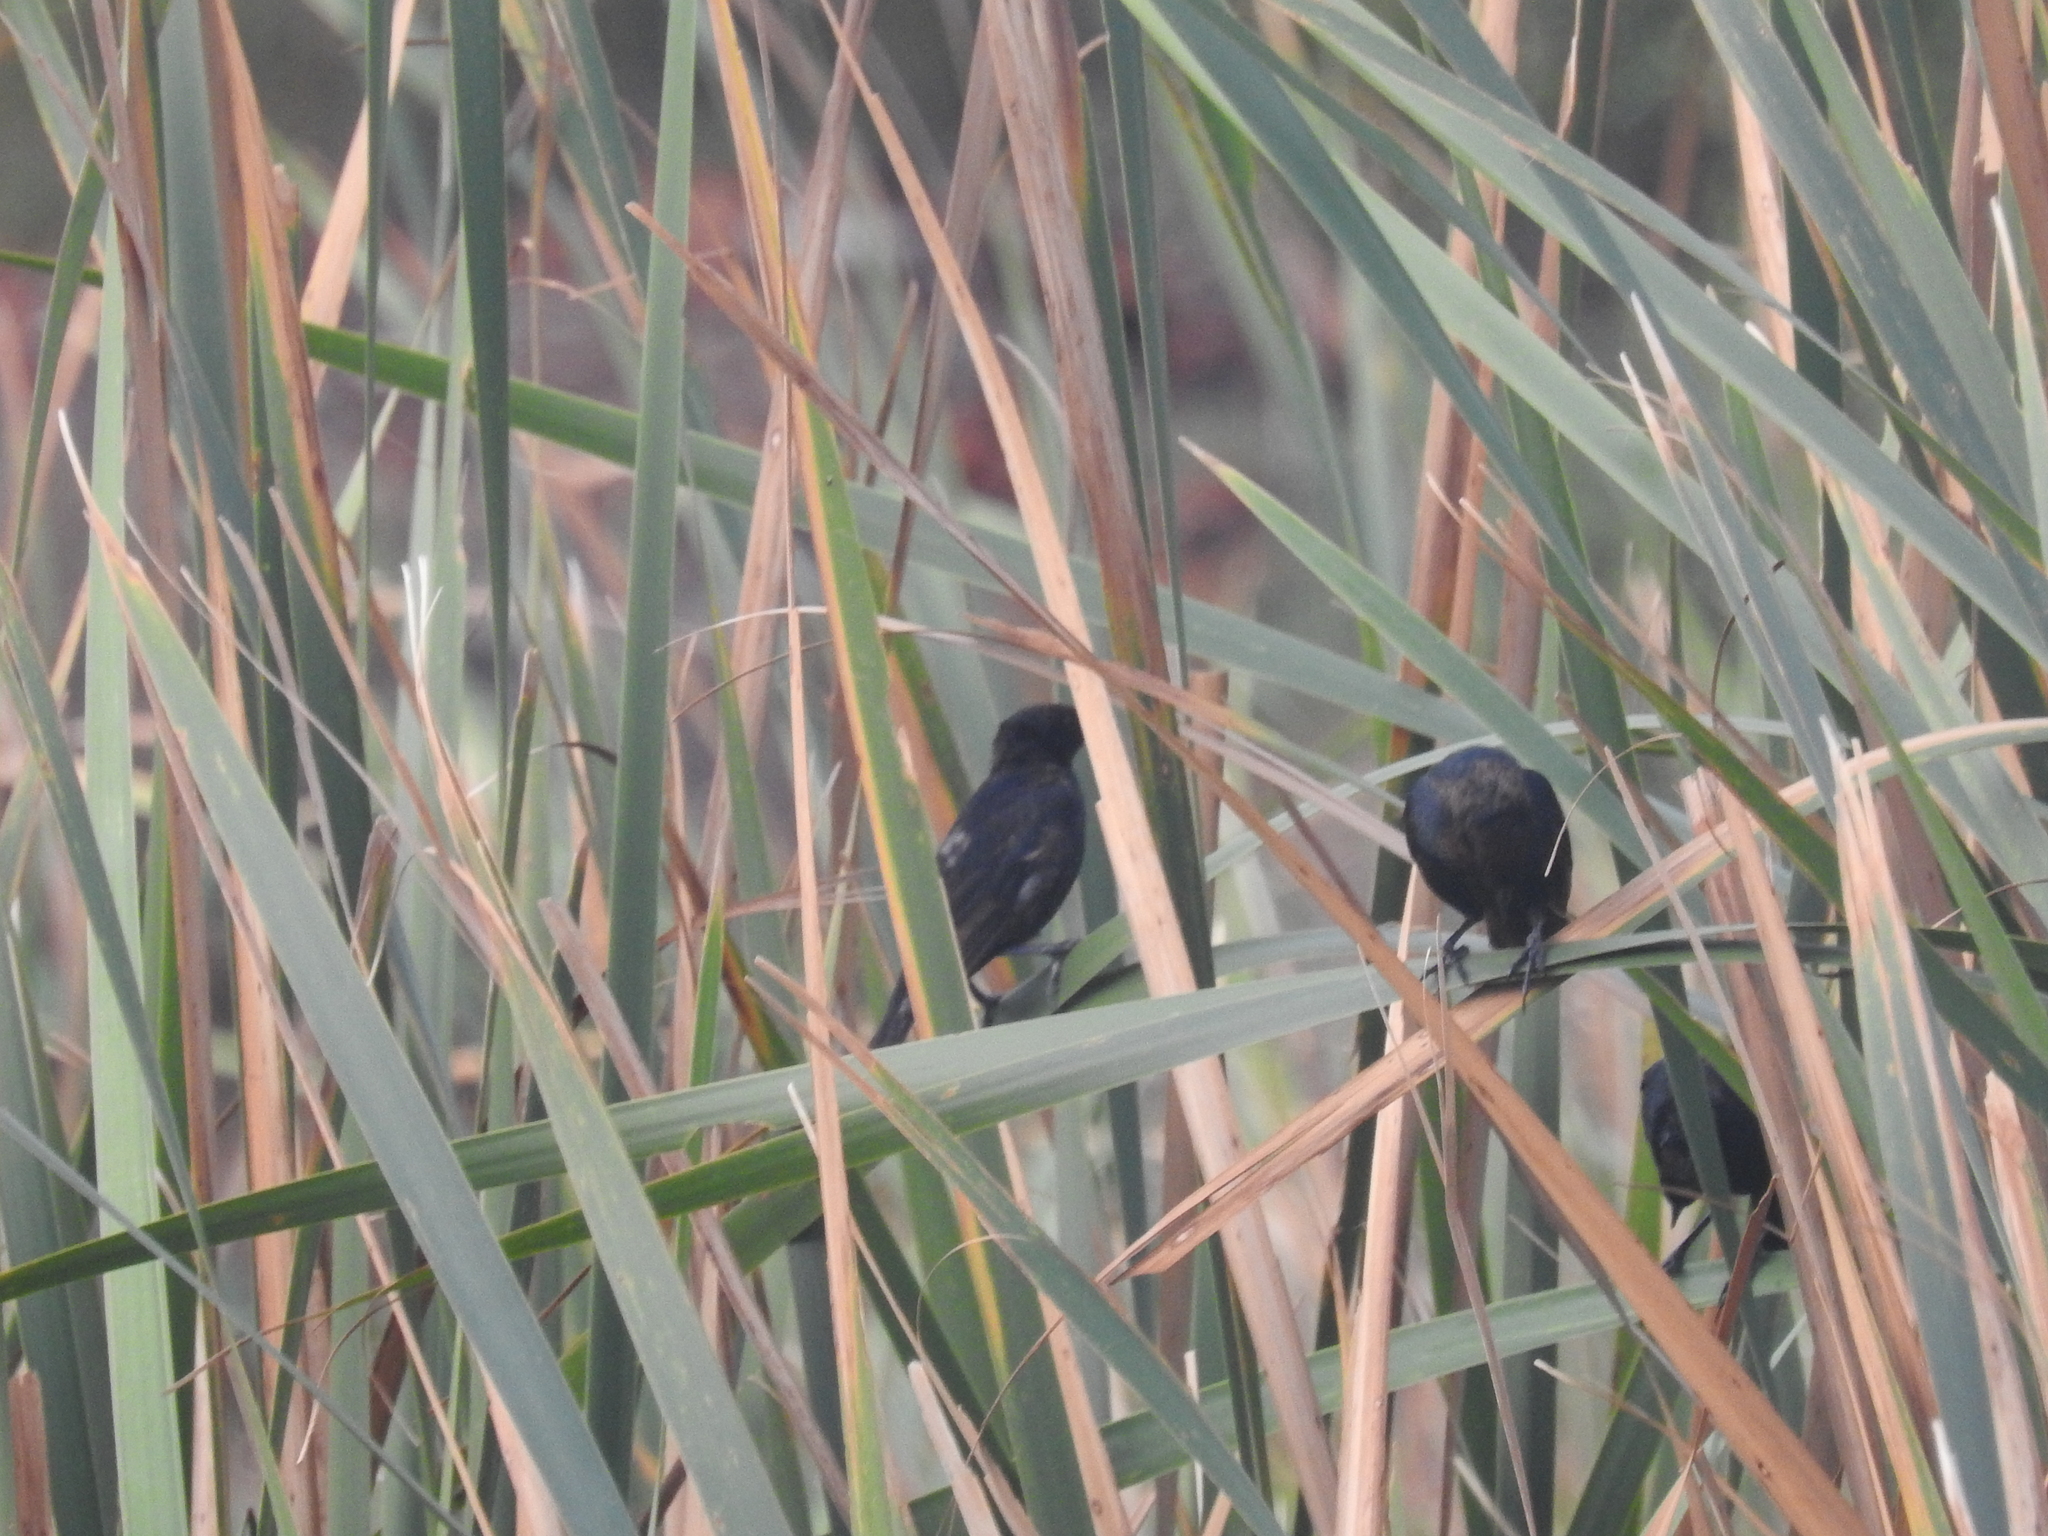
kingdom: Animalia
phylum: Chordata
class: Aves
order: Passeriformes
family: Icteridae
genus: Chrysomus
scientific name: Chrysomus ruficapillus
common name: Chestnut-capped blackbird
